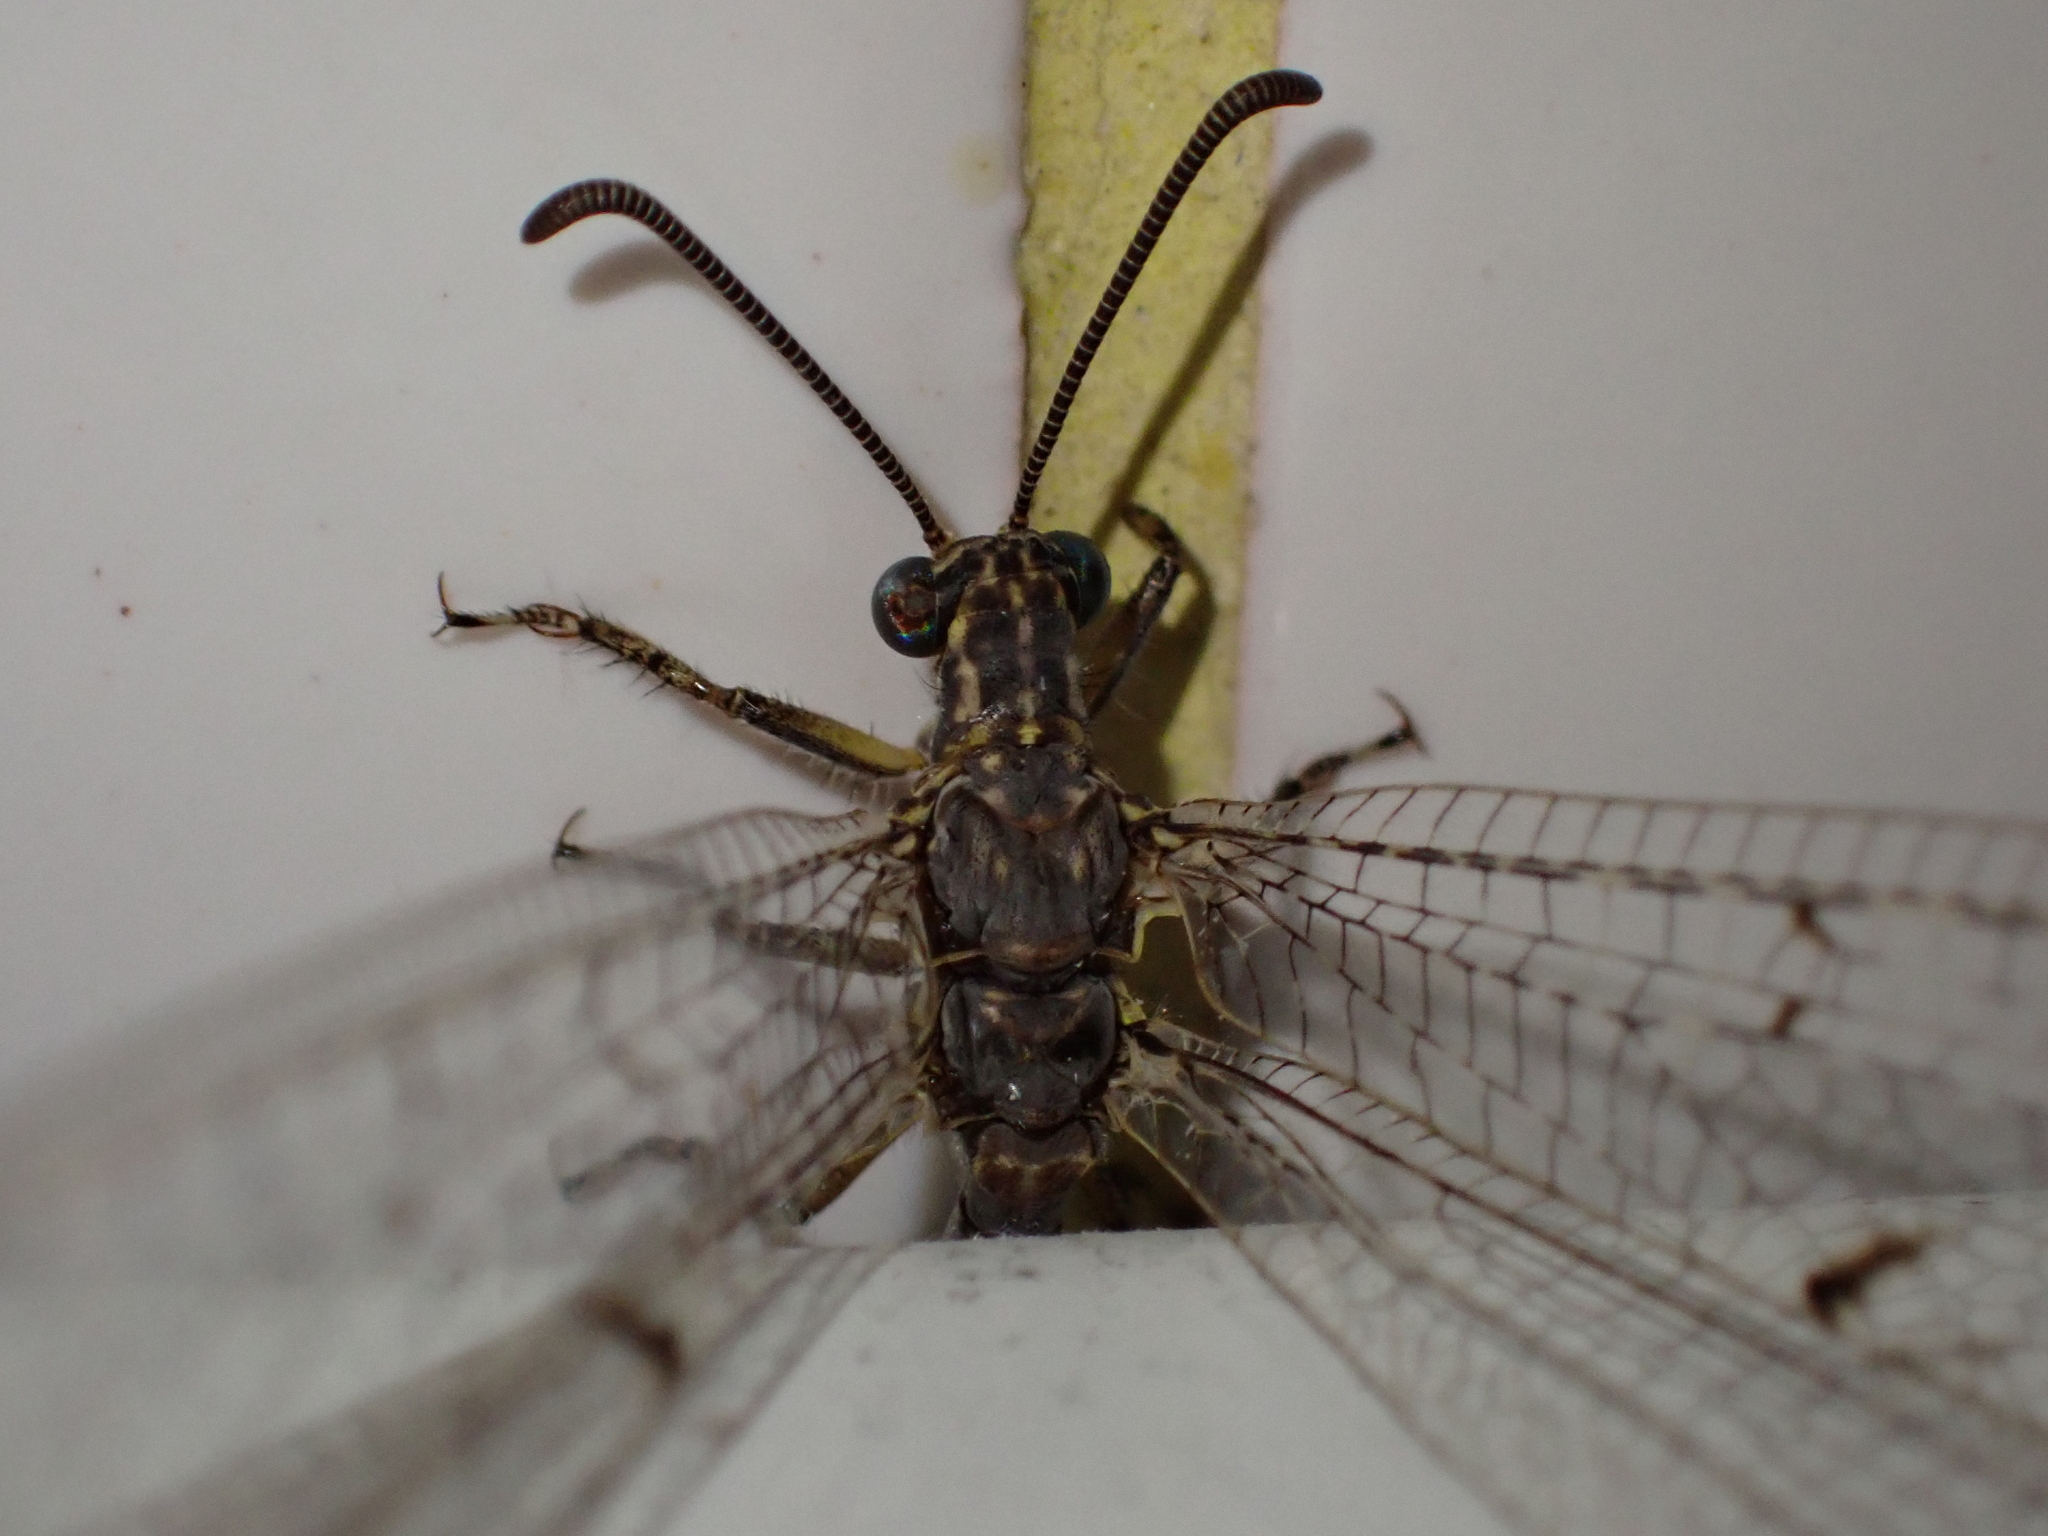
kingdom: Animalia
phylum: Arthropoda
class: Insecta
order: Neuroptera
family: Myrmeleontidae
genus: Distoleon
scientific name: Distoleon tetragrammicus
